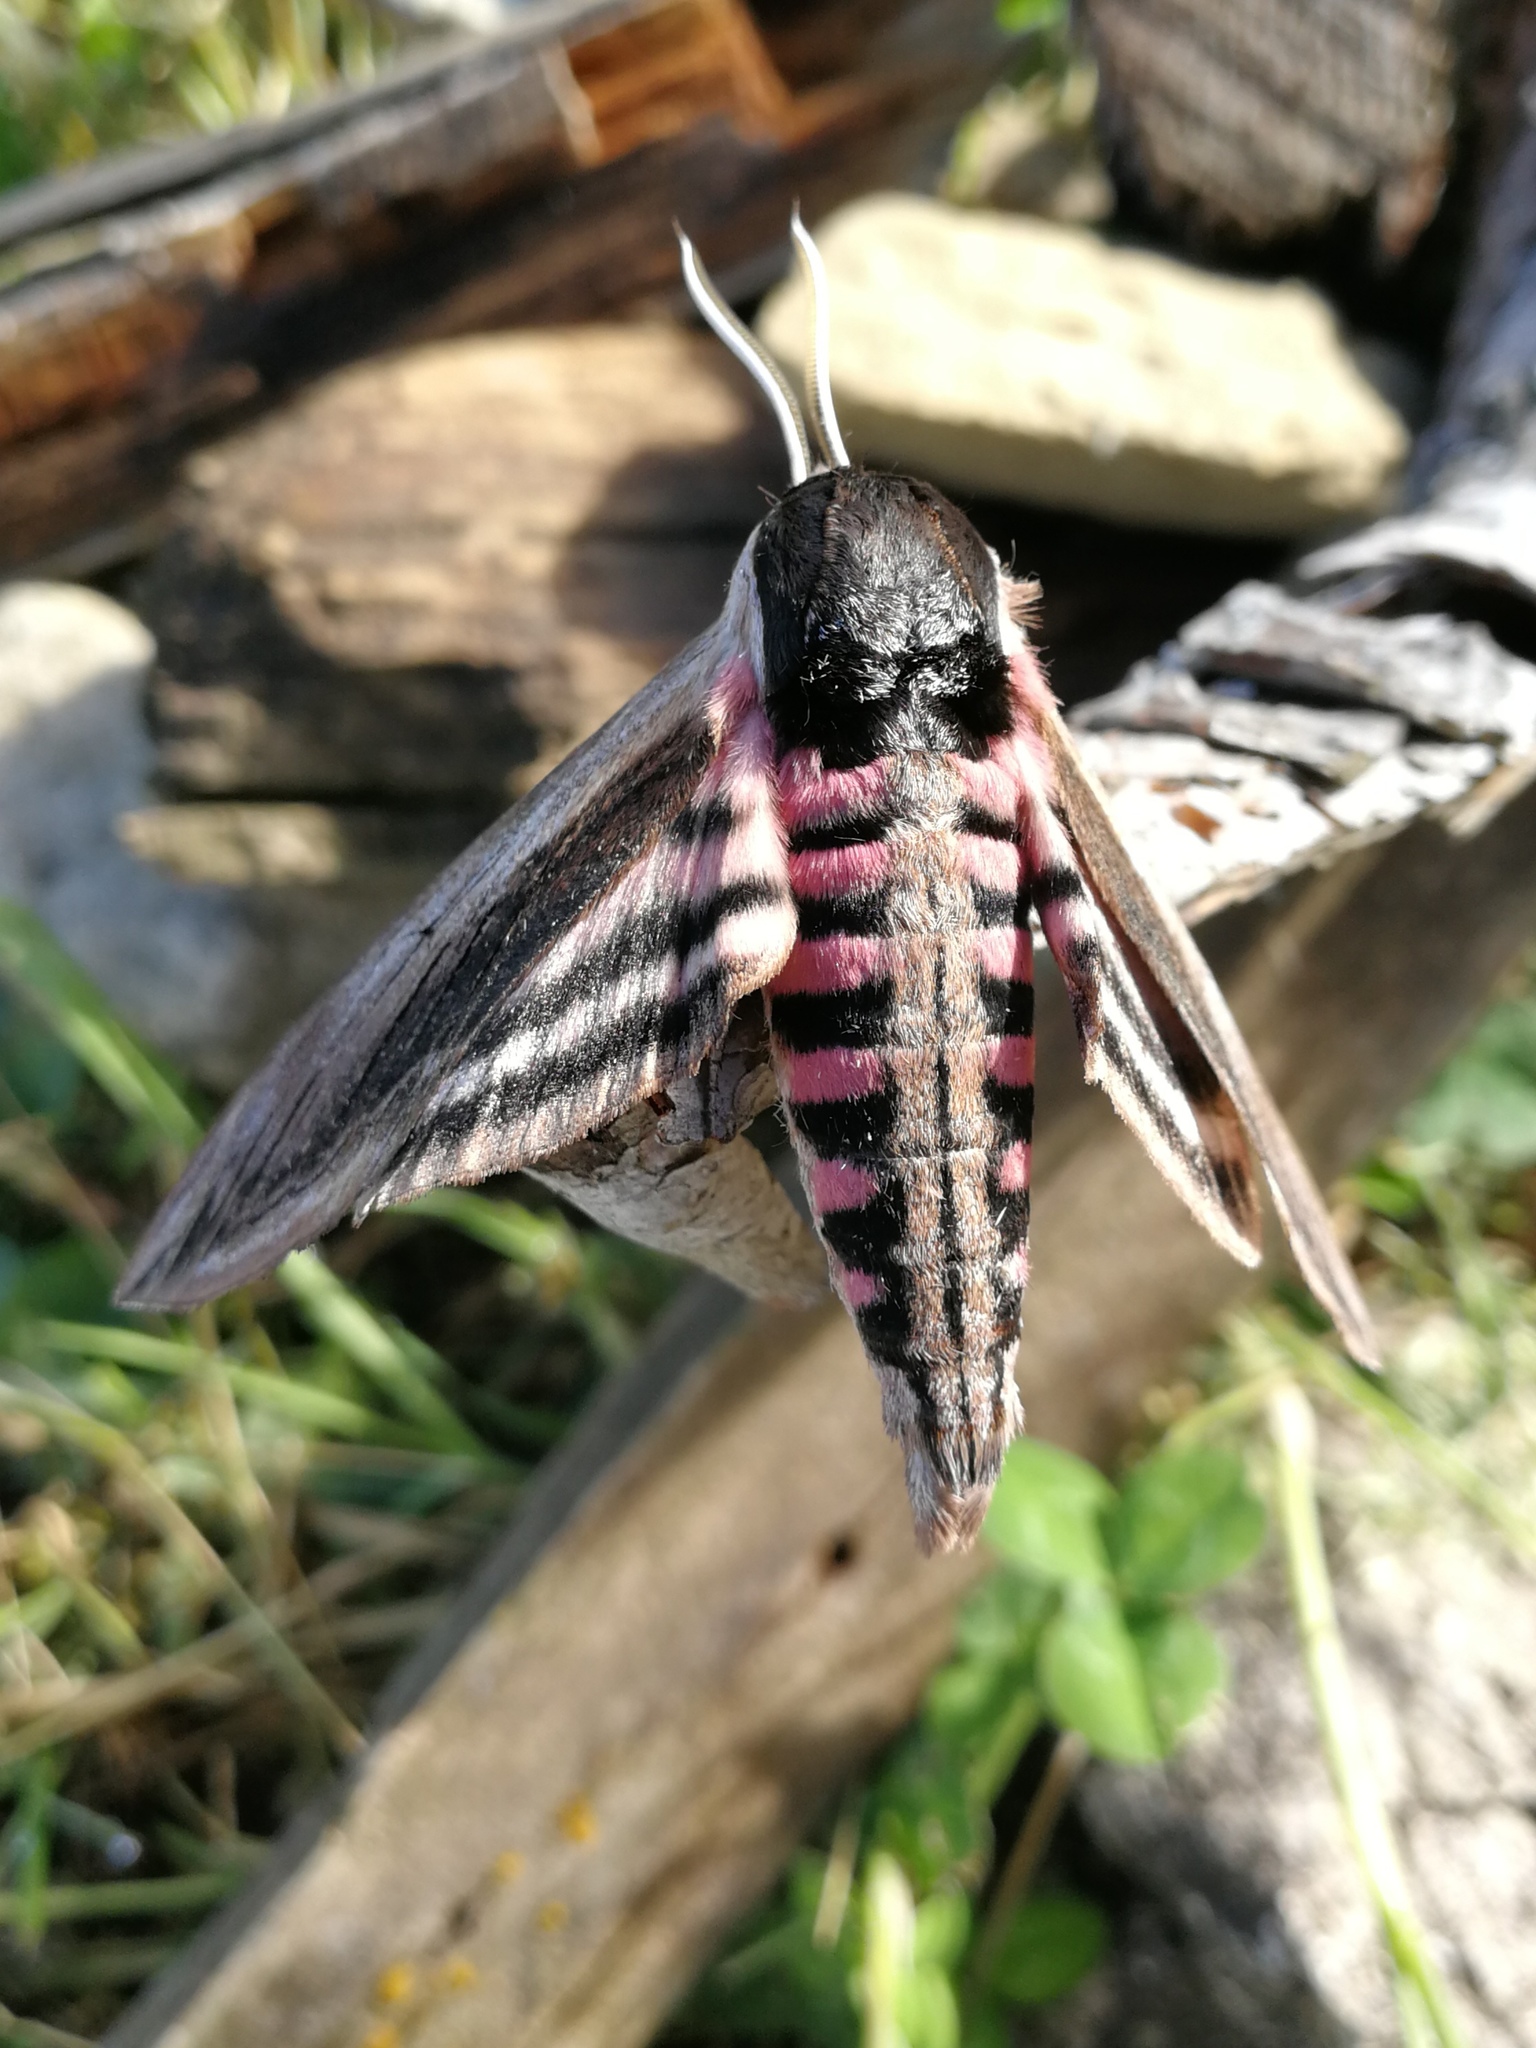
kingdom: Animalia
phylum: Arthropoda
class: Insecta
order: Lepidoptera
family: Sphingidae
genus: Sphinx
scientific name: Sphinx ligustri
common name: Privet hawk-moth
